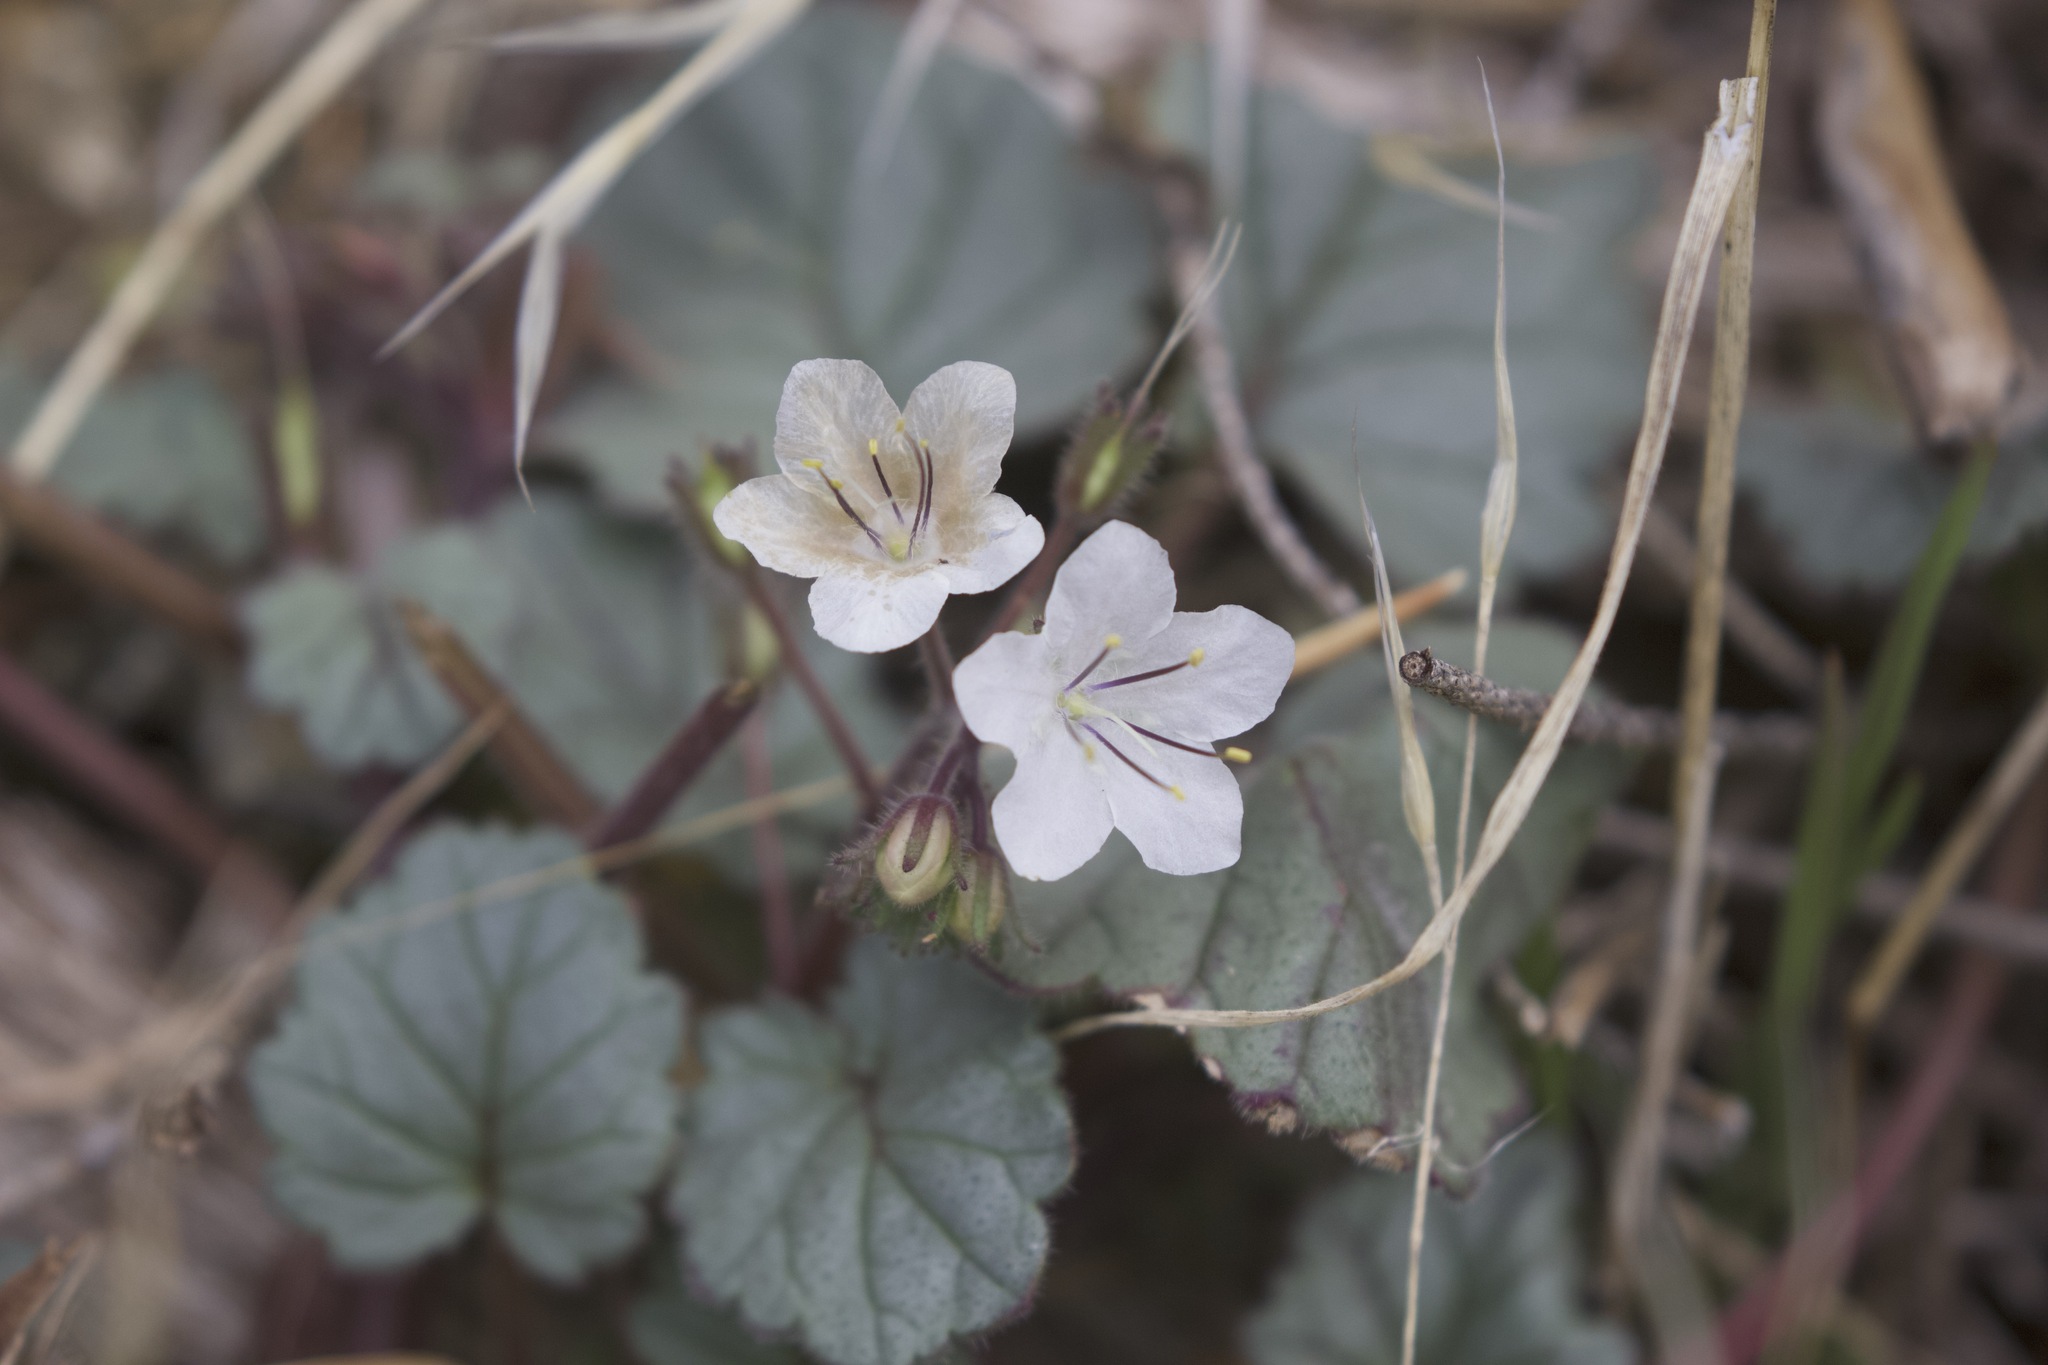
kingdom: Plantae
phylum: Tracheophyta
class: Magnoliopsida
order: Boraginales
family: Hydrophyllaceae
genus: Phacelia
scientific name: Phacelia longipes
